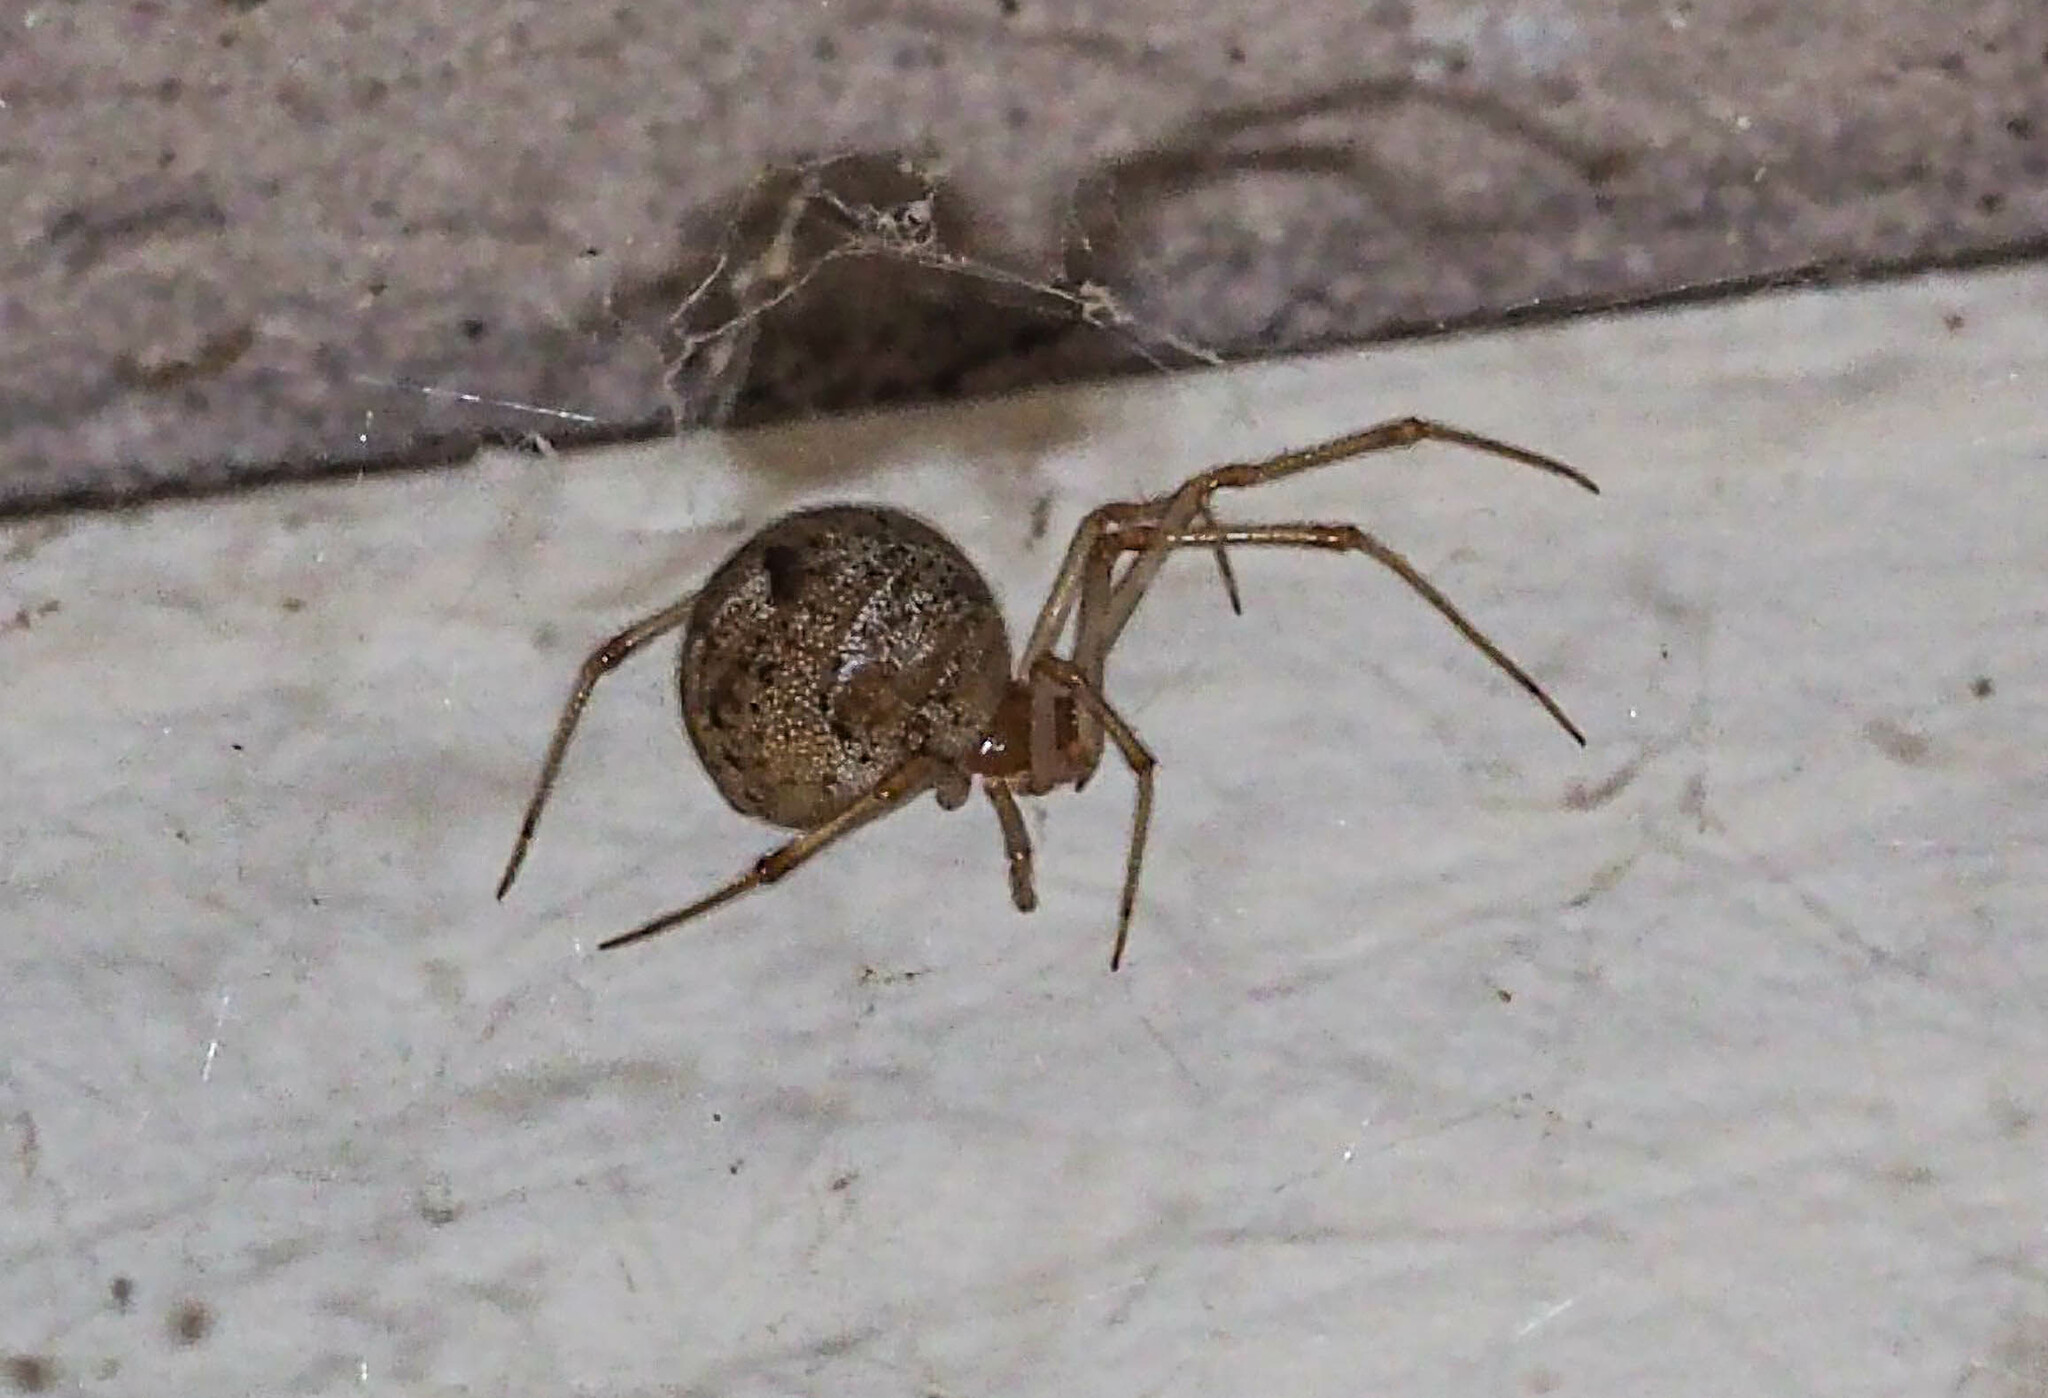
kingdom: Animalia
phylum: Arthropoda
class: Arachnida
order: Araneae
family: Theridiidae
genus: Parasteatoda
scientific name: Parasteatoda tepidariorum
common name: Common house spider
